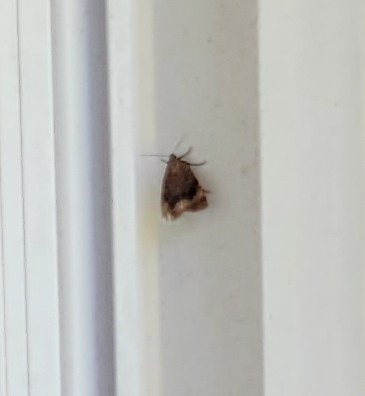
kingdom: Animalia
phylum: Arthropoda
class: Insecta
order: Lepidoptera
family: Noctuidae
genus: Amphipyra
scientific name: Amphipyra pyramidoides
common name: American copper underwing
